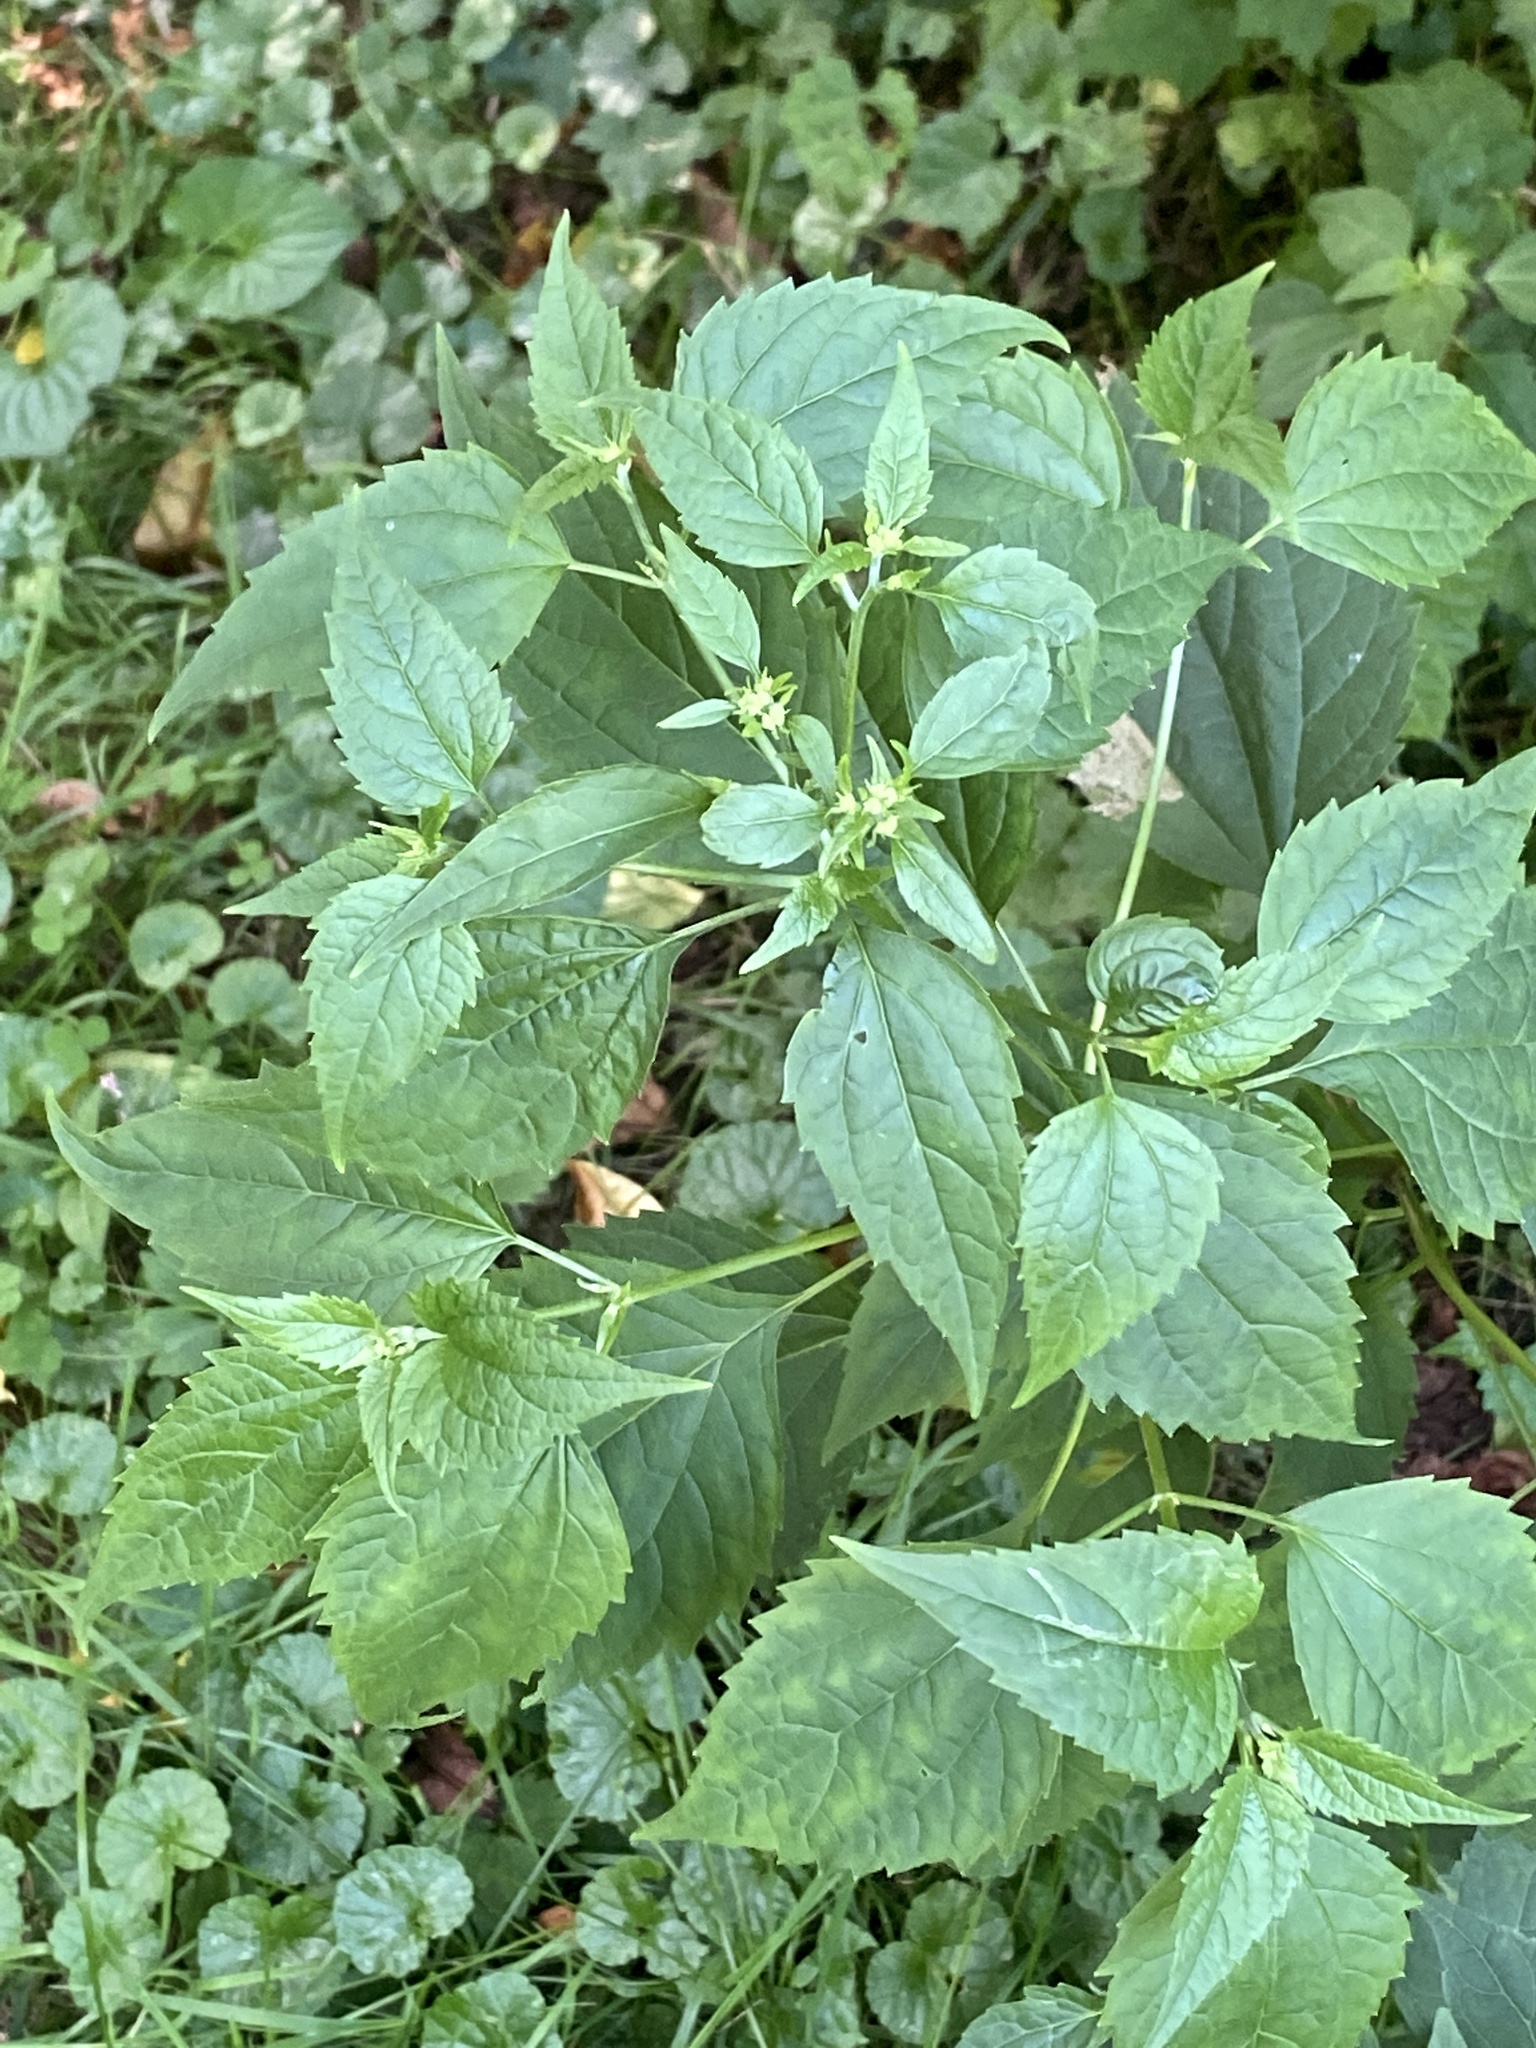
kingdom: Plantae
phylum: Tracheophyta
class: Magnoliopsida
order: Asterales
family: Asteraceae
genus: Ageratina
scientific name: Ageratina altissima
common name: White snakeroot
